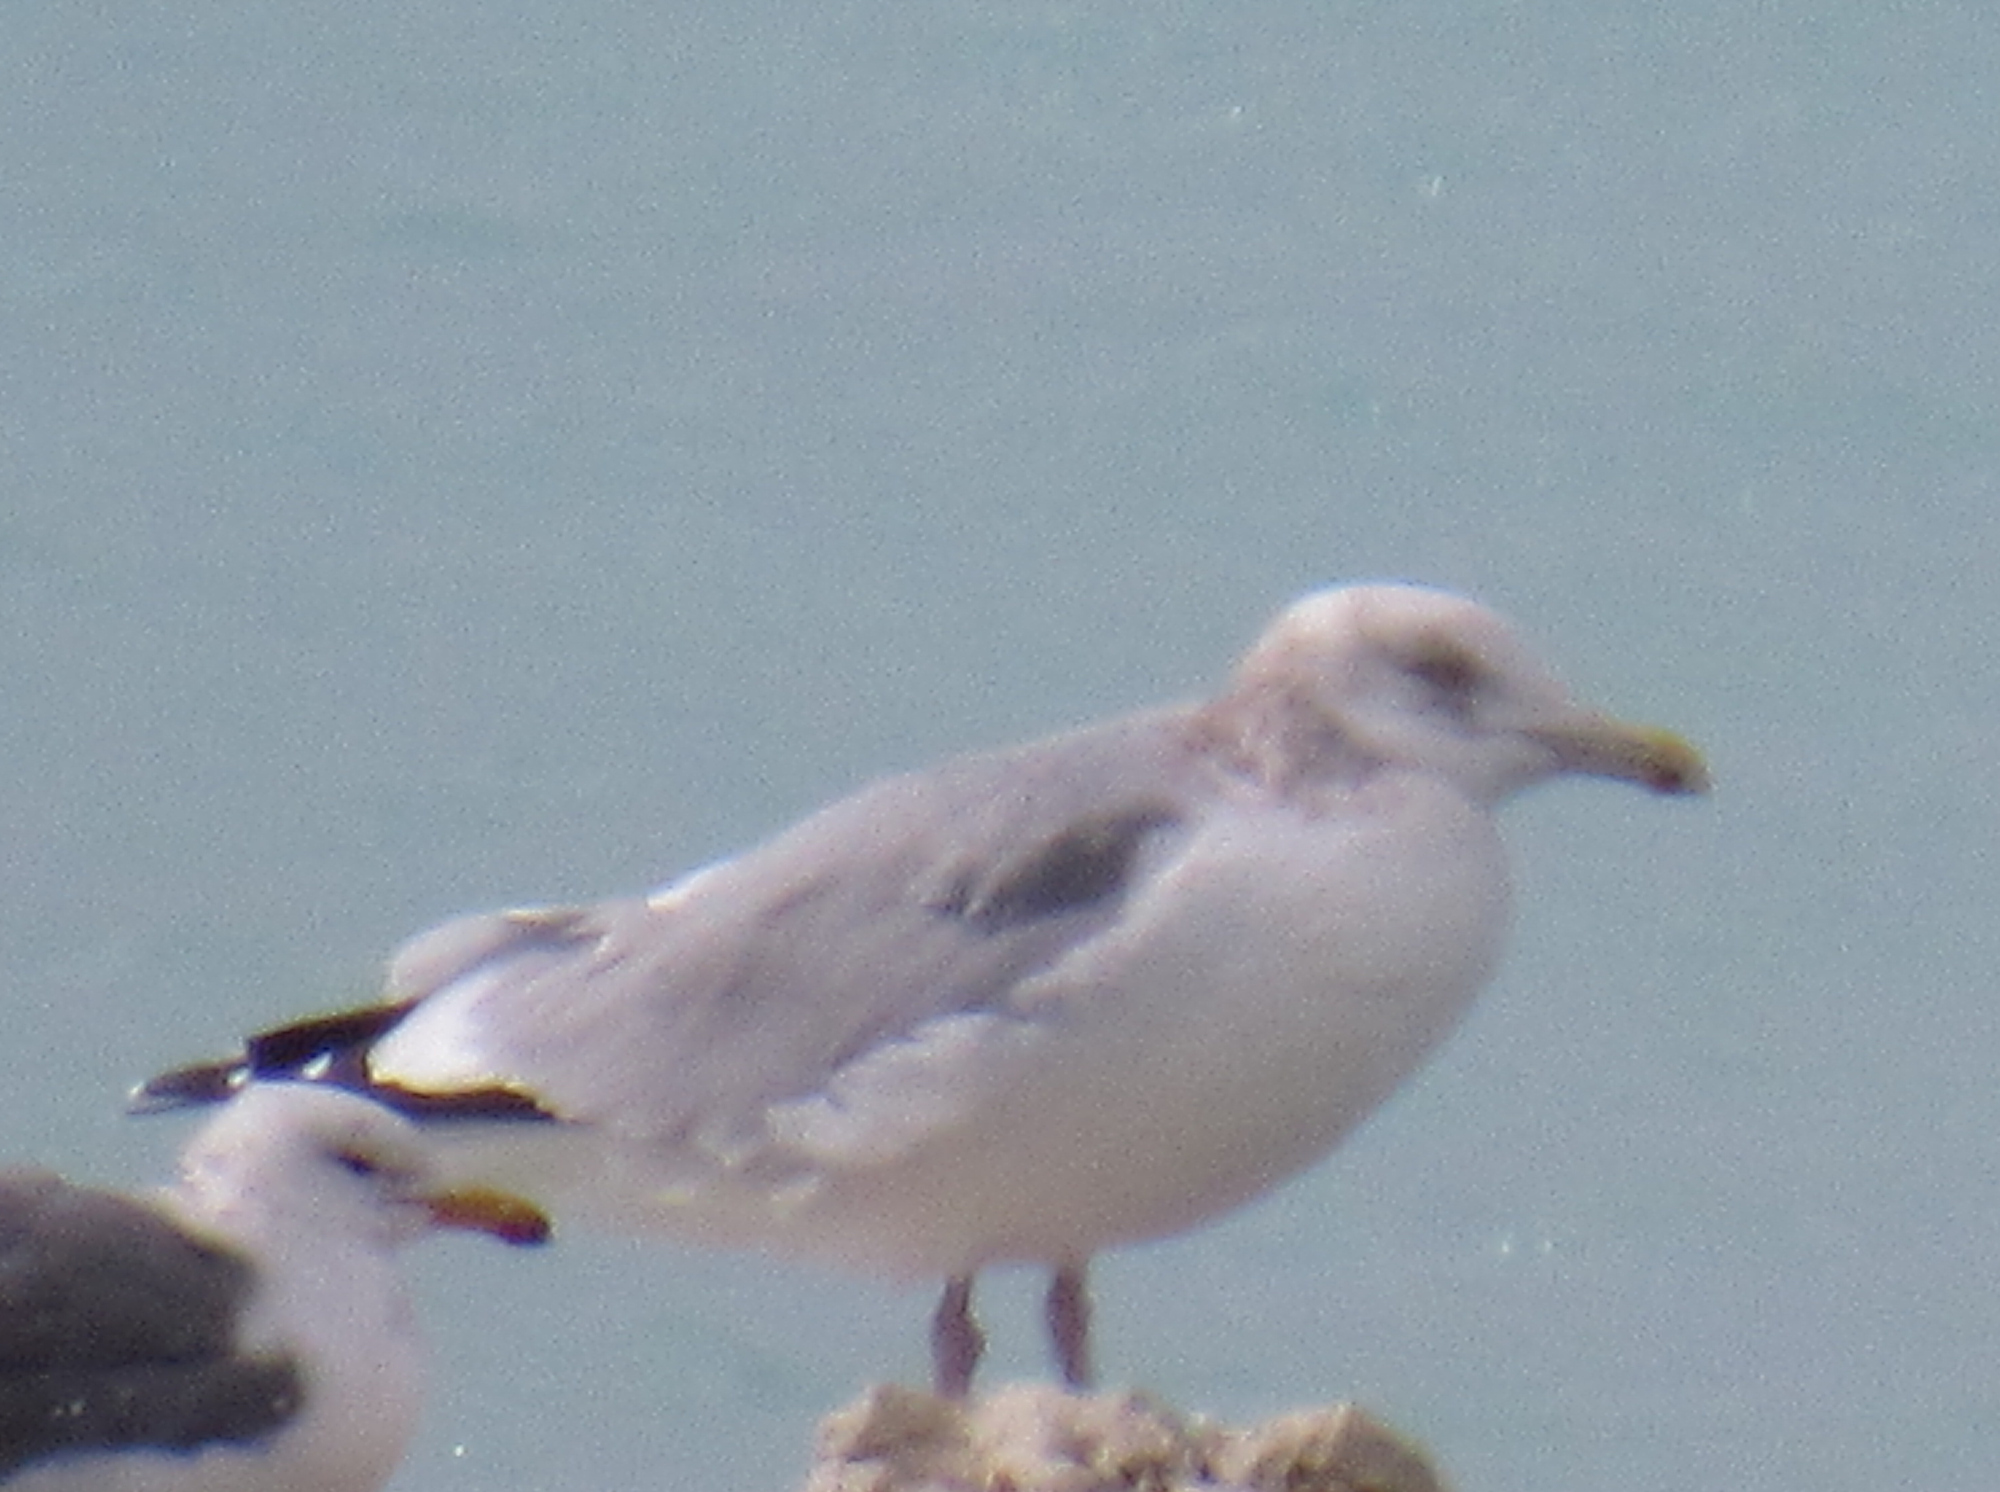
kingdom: Animalia
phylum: Chordata
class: Aves
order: Charadriiformes
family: Laridae
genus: Larus
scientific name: Larus argentatus
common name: Herring gull
